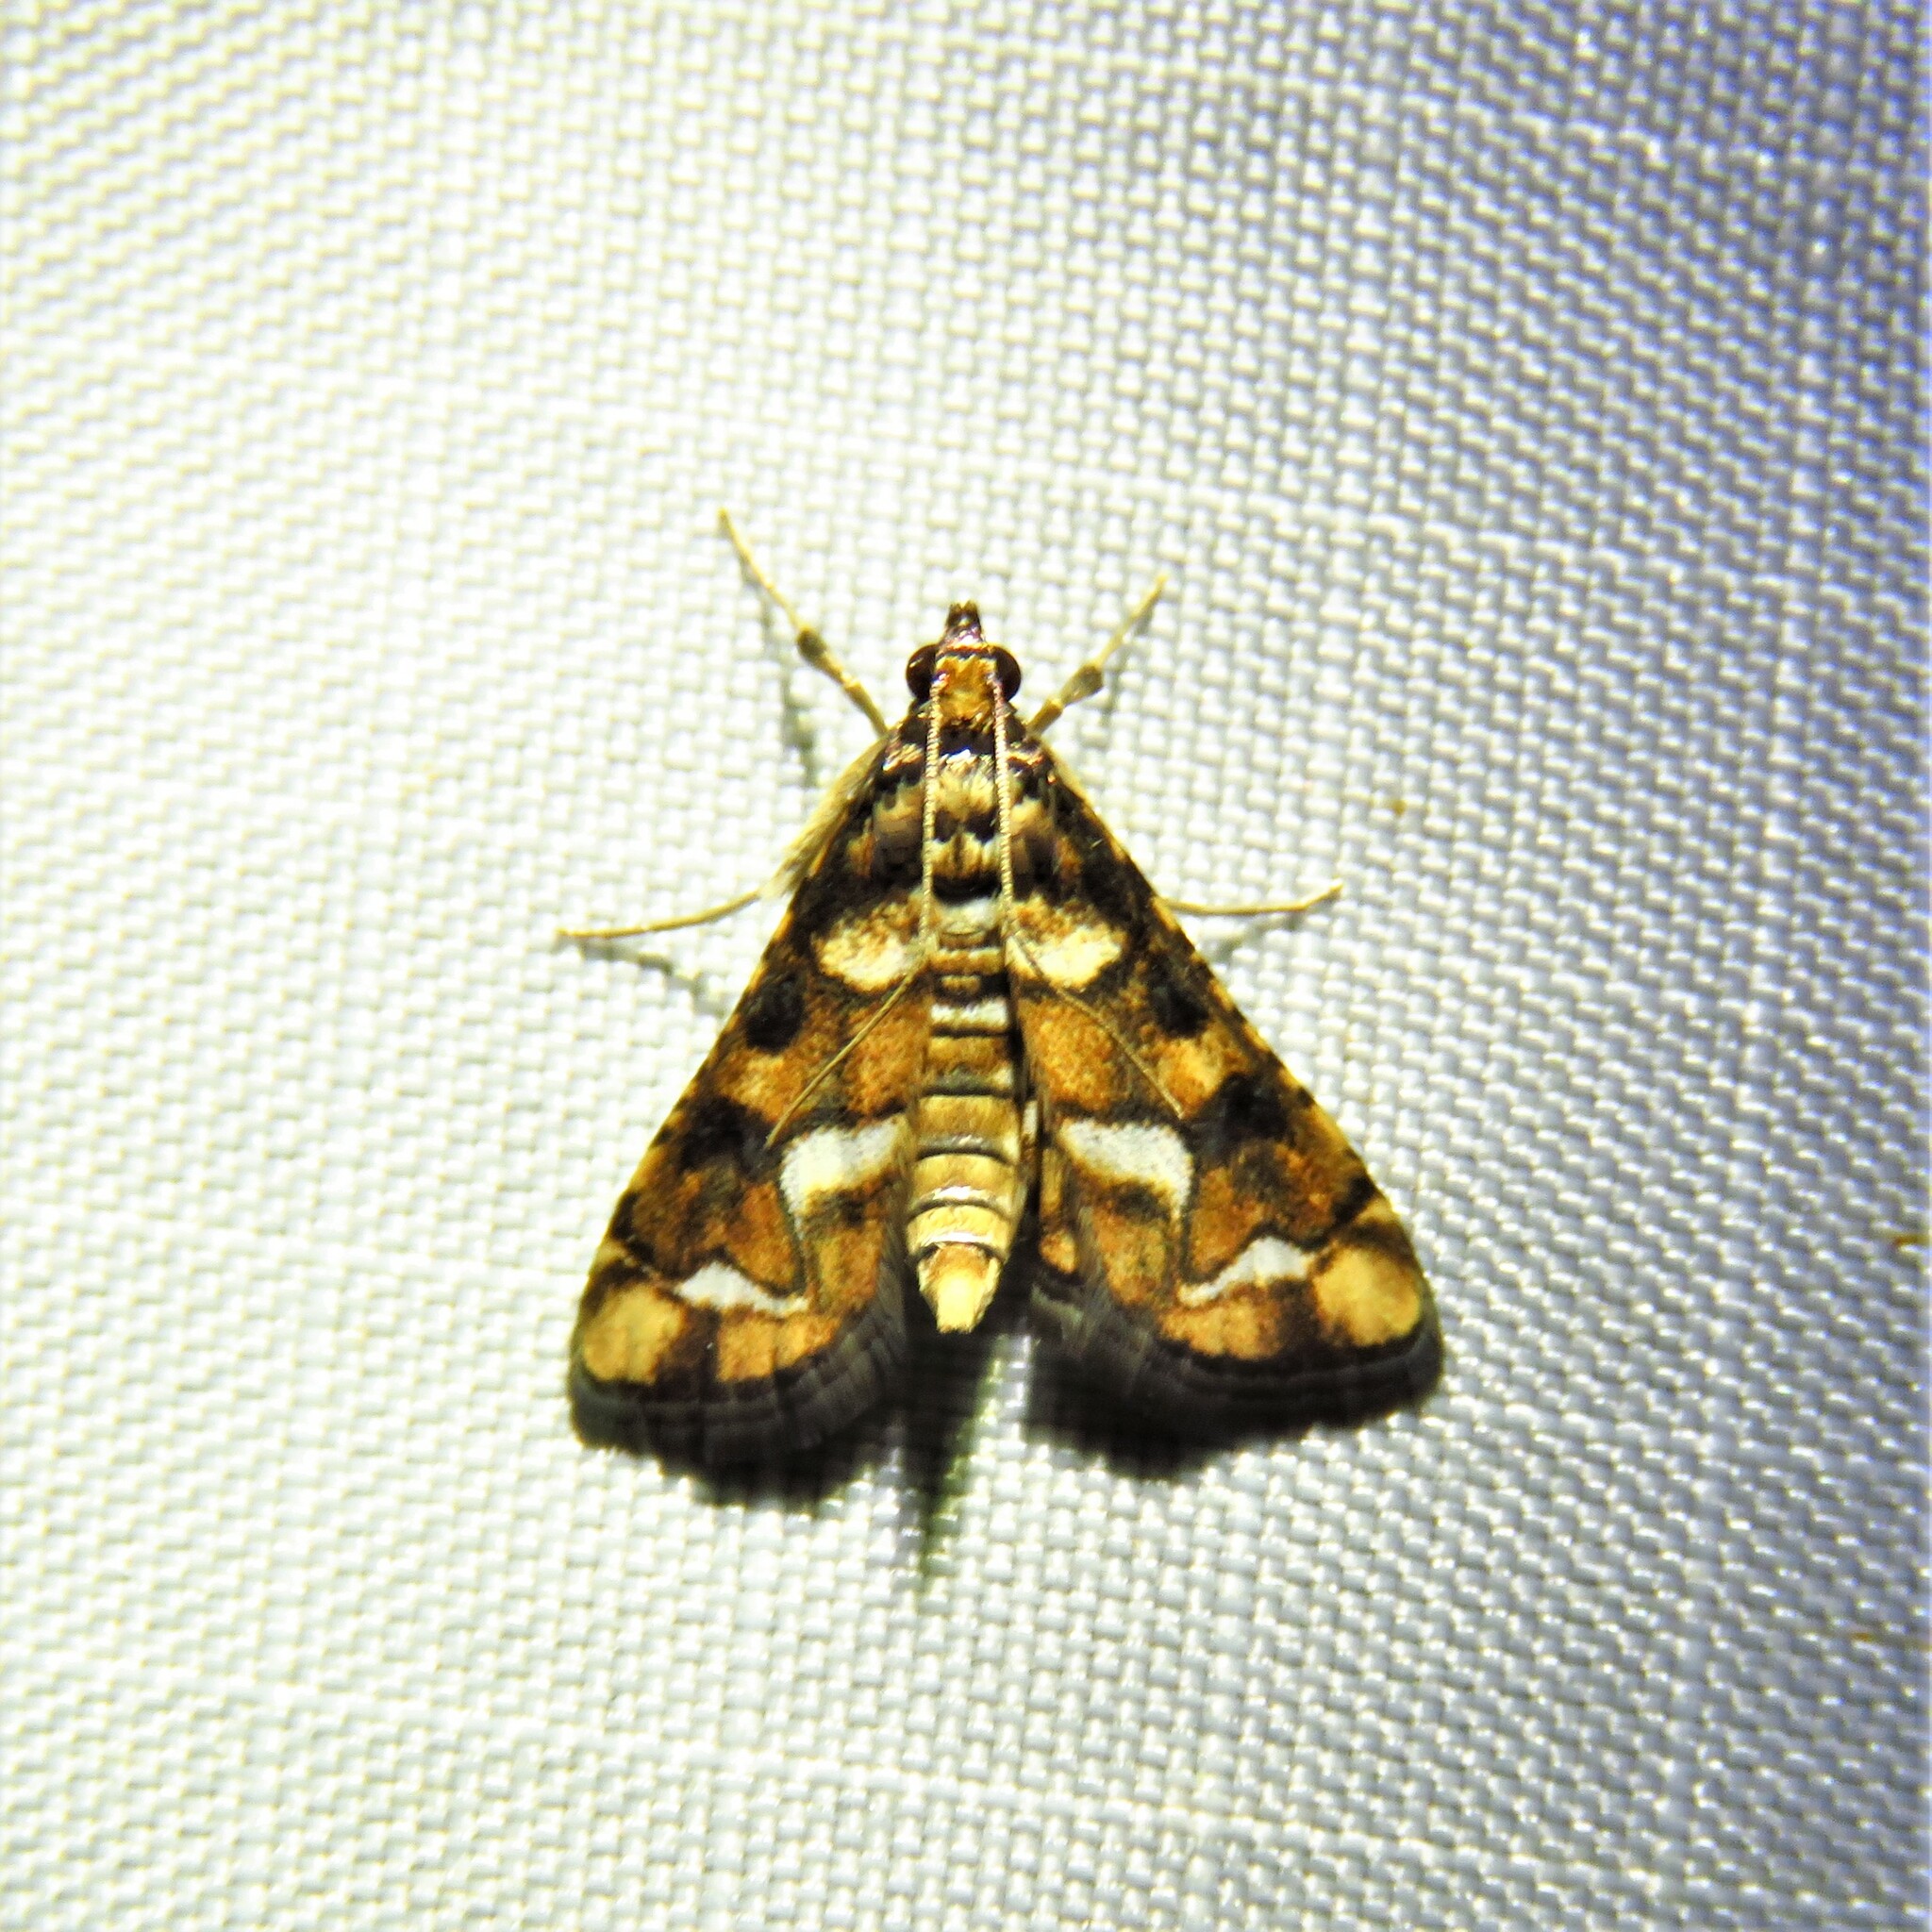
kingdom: Animalia
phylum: Arthropoda
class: Insecta
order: Lepidoptera
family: Crambidae
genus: Hileithia
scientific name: Hileithia magualis
